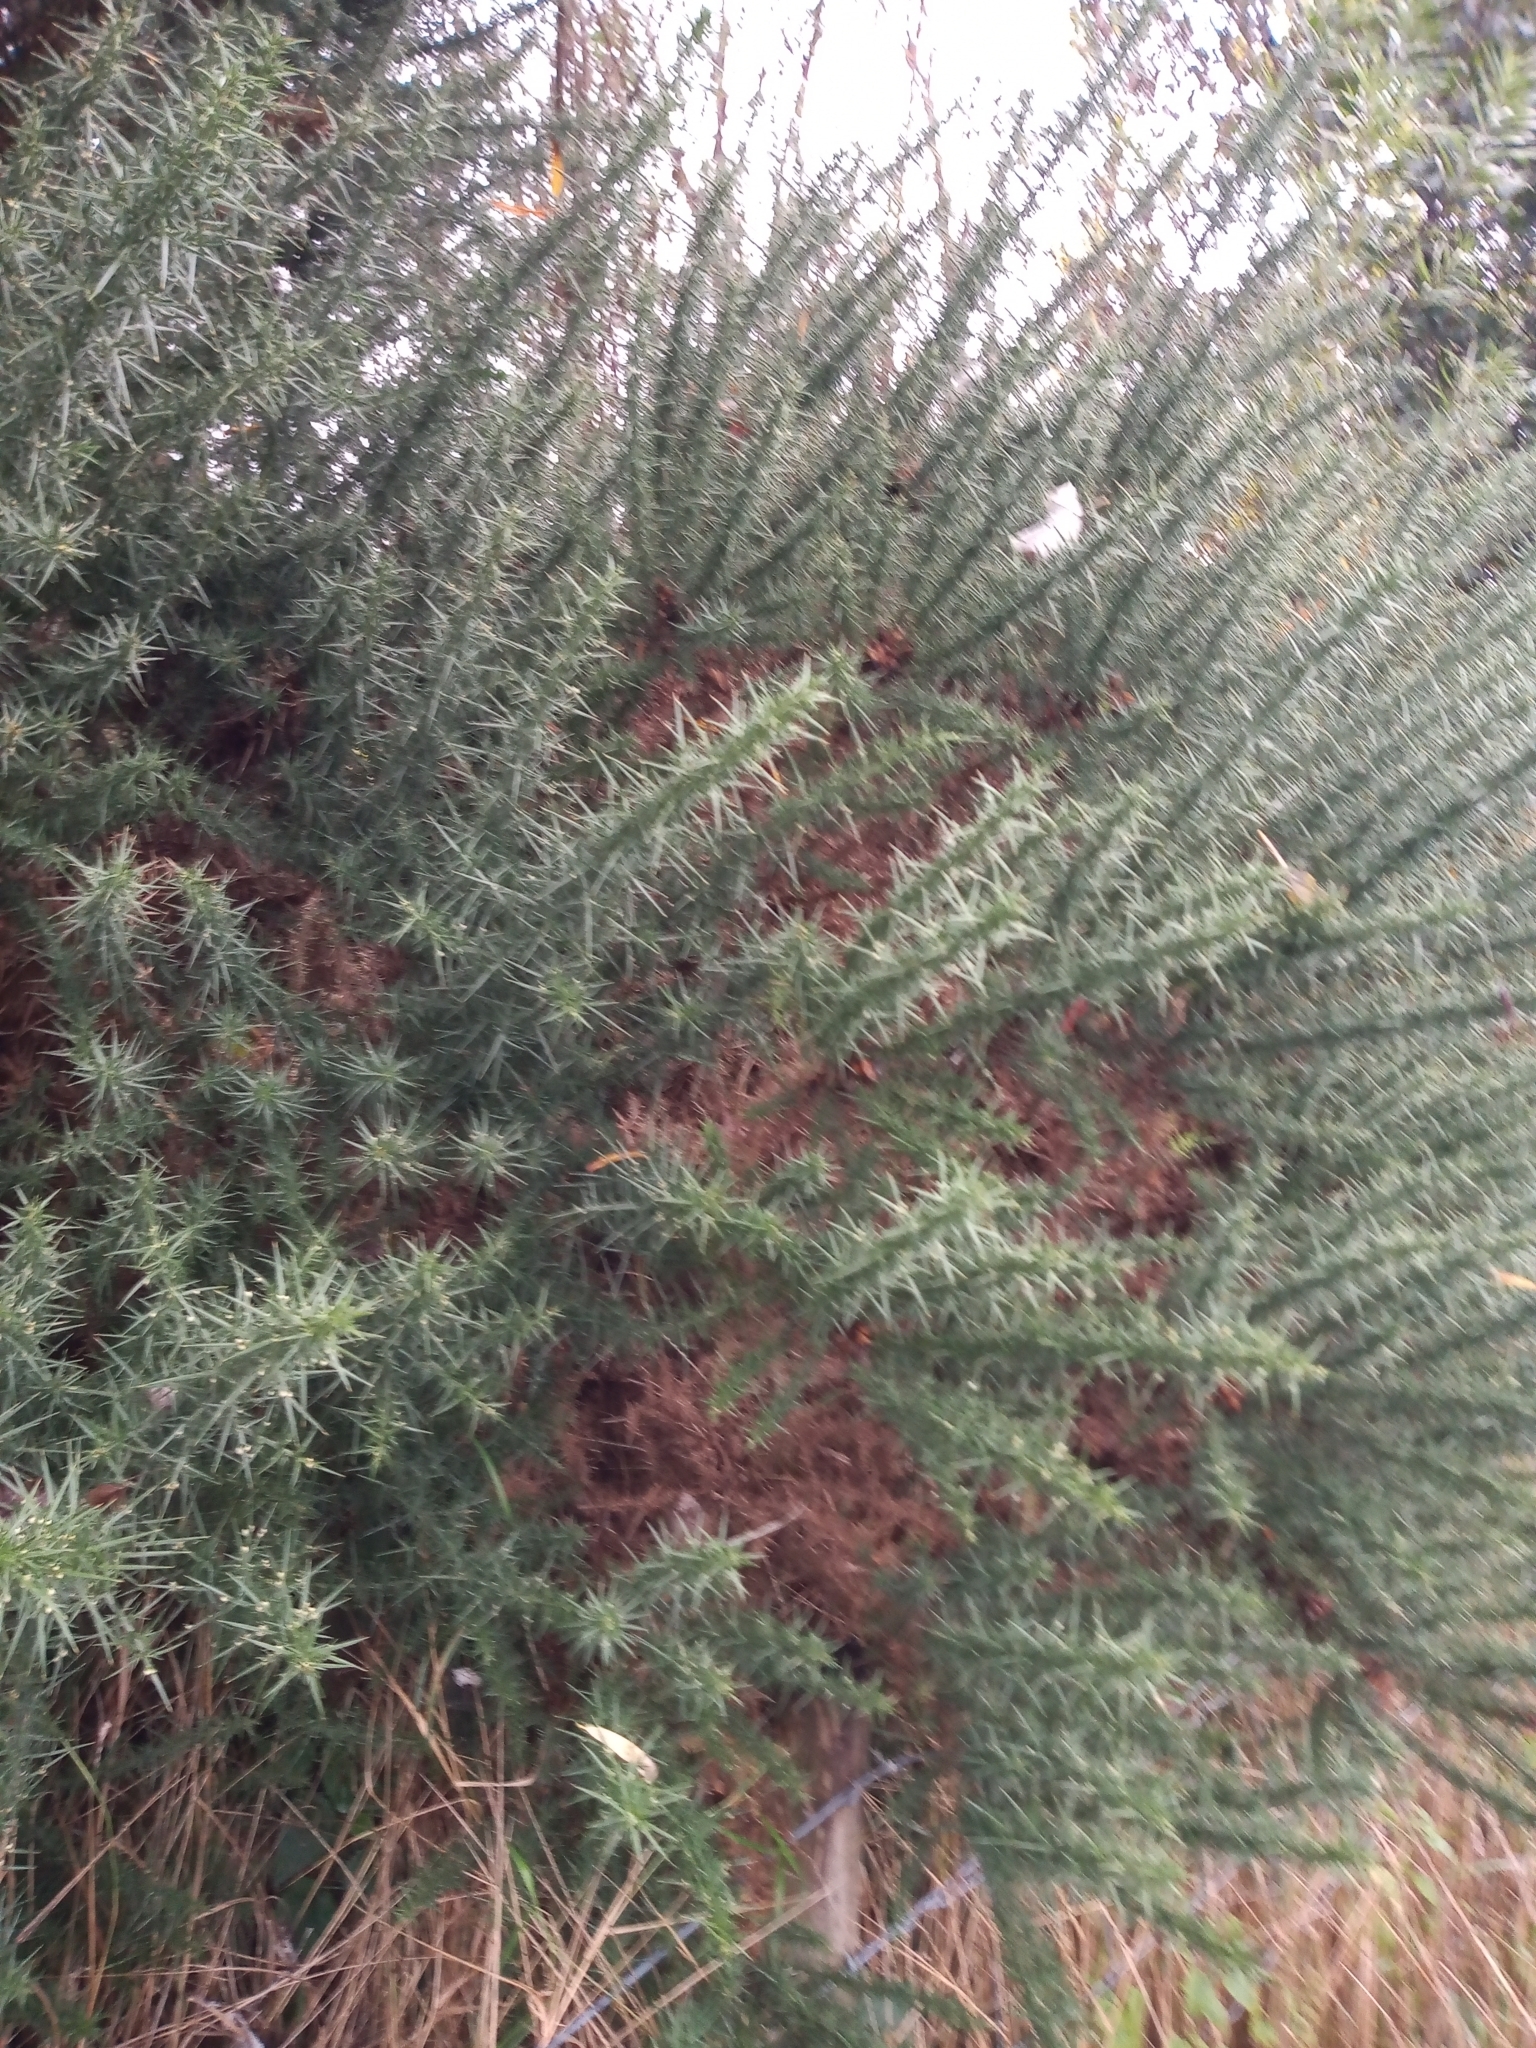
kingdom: Plantae
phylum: Tracheophyta
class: Magnoliopsida
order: Fabales
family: Fabaceae
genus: Ulex
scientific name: Ulex europaeus
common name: Common gorse
